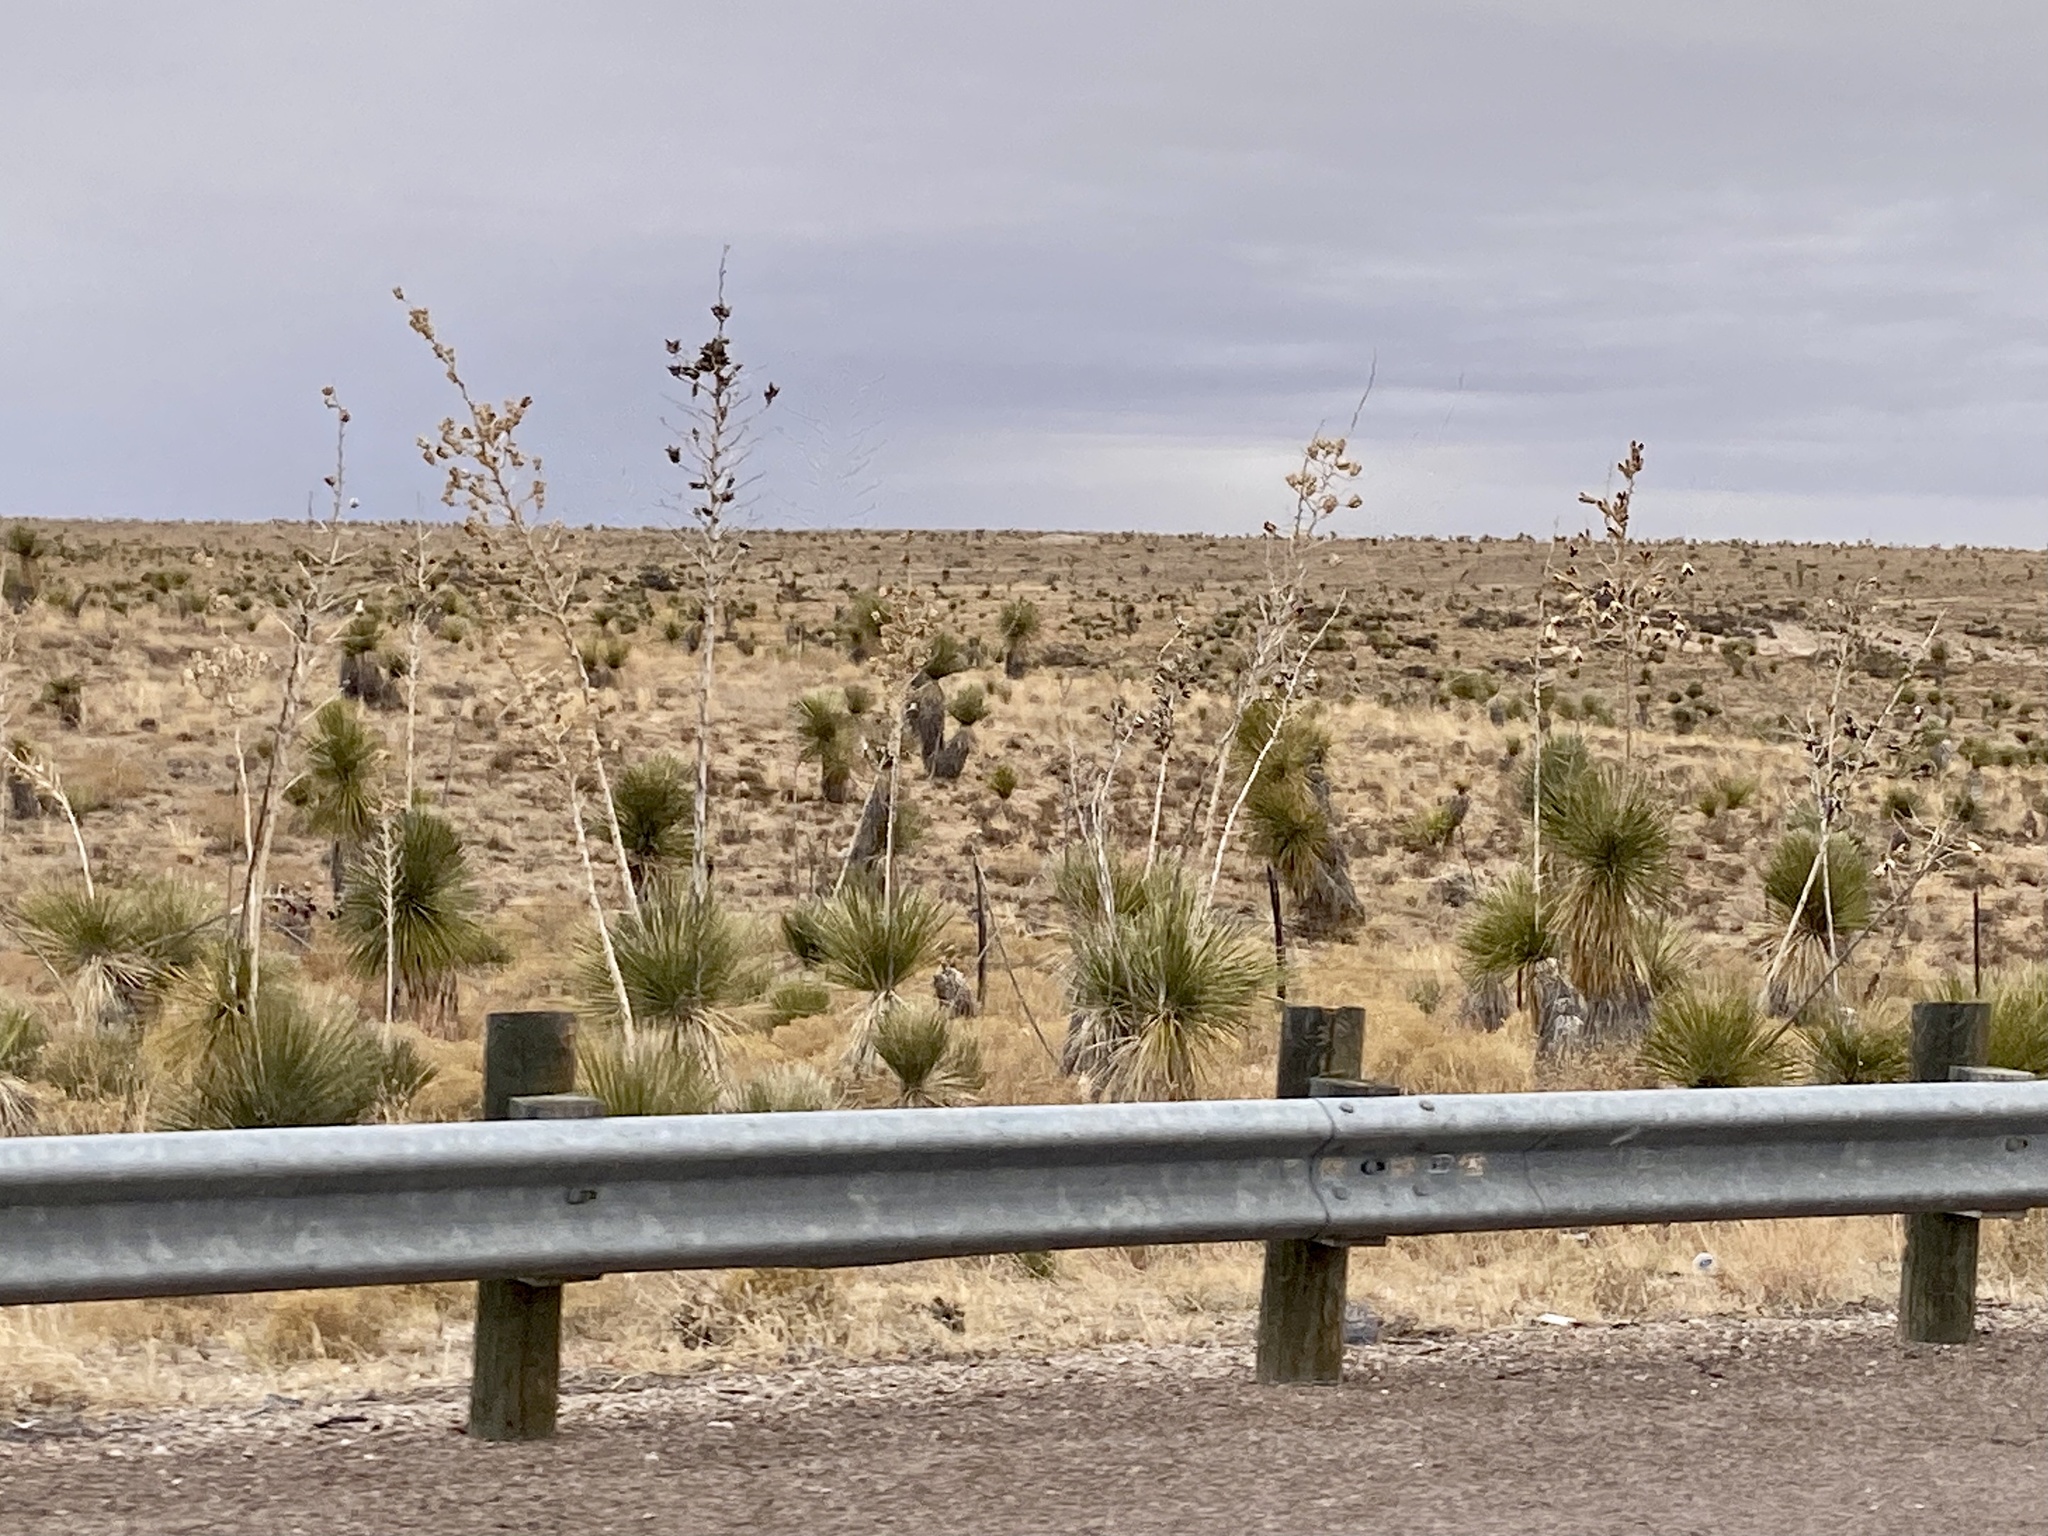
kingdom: Plantae
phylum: Tracheophyta
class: Liliopsida
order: Asparagales
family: Asparagaceae
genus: Yucca
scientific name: Yucca elata
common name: Palmella
